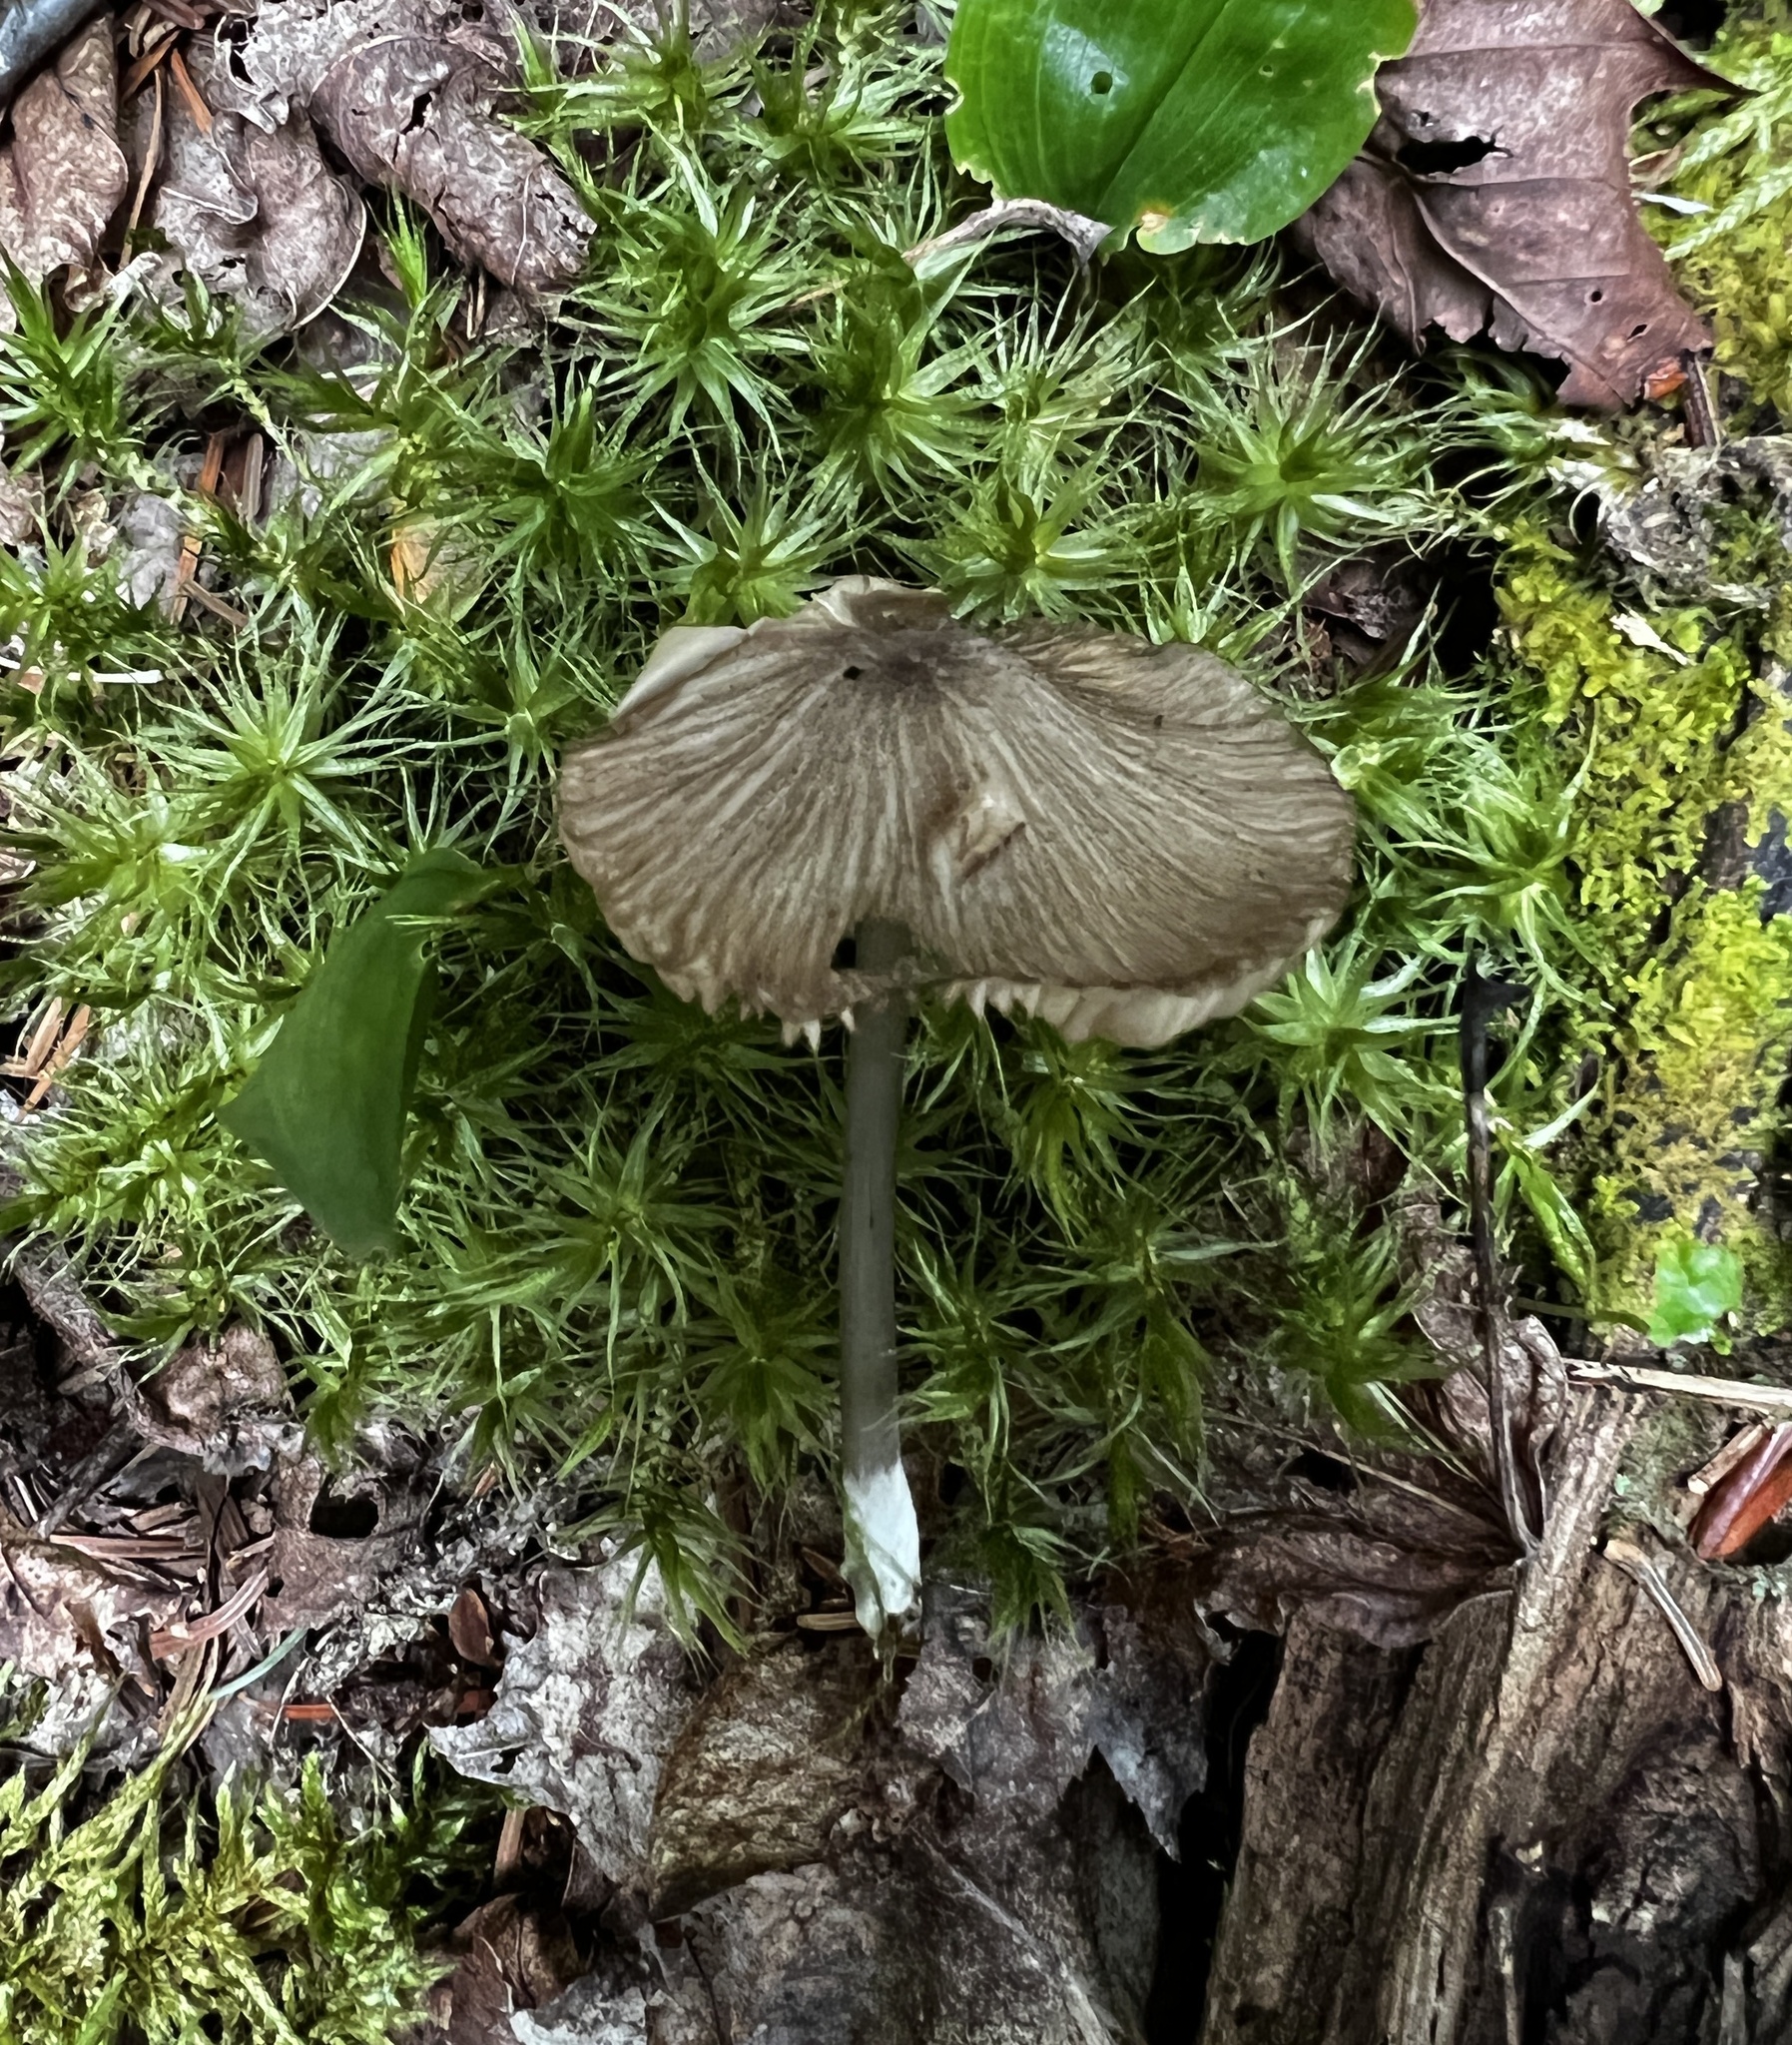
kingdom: Fungi
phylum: Basidiomycota
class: Agaricomycetes
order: Agaricales
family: Entolomataceae
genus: Entoloma
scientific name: Entoloma alboumbonatum
